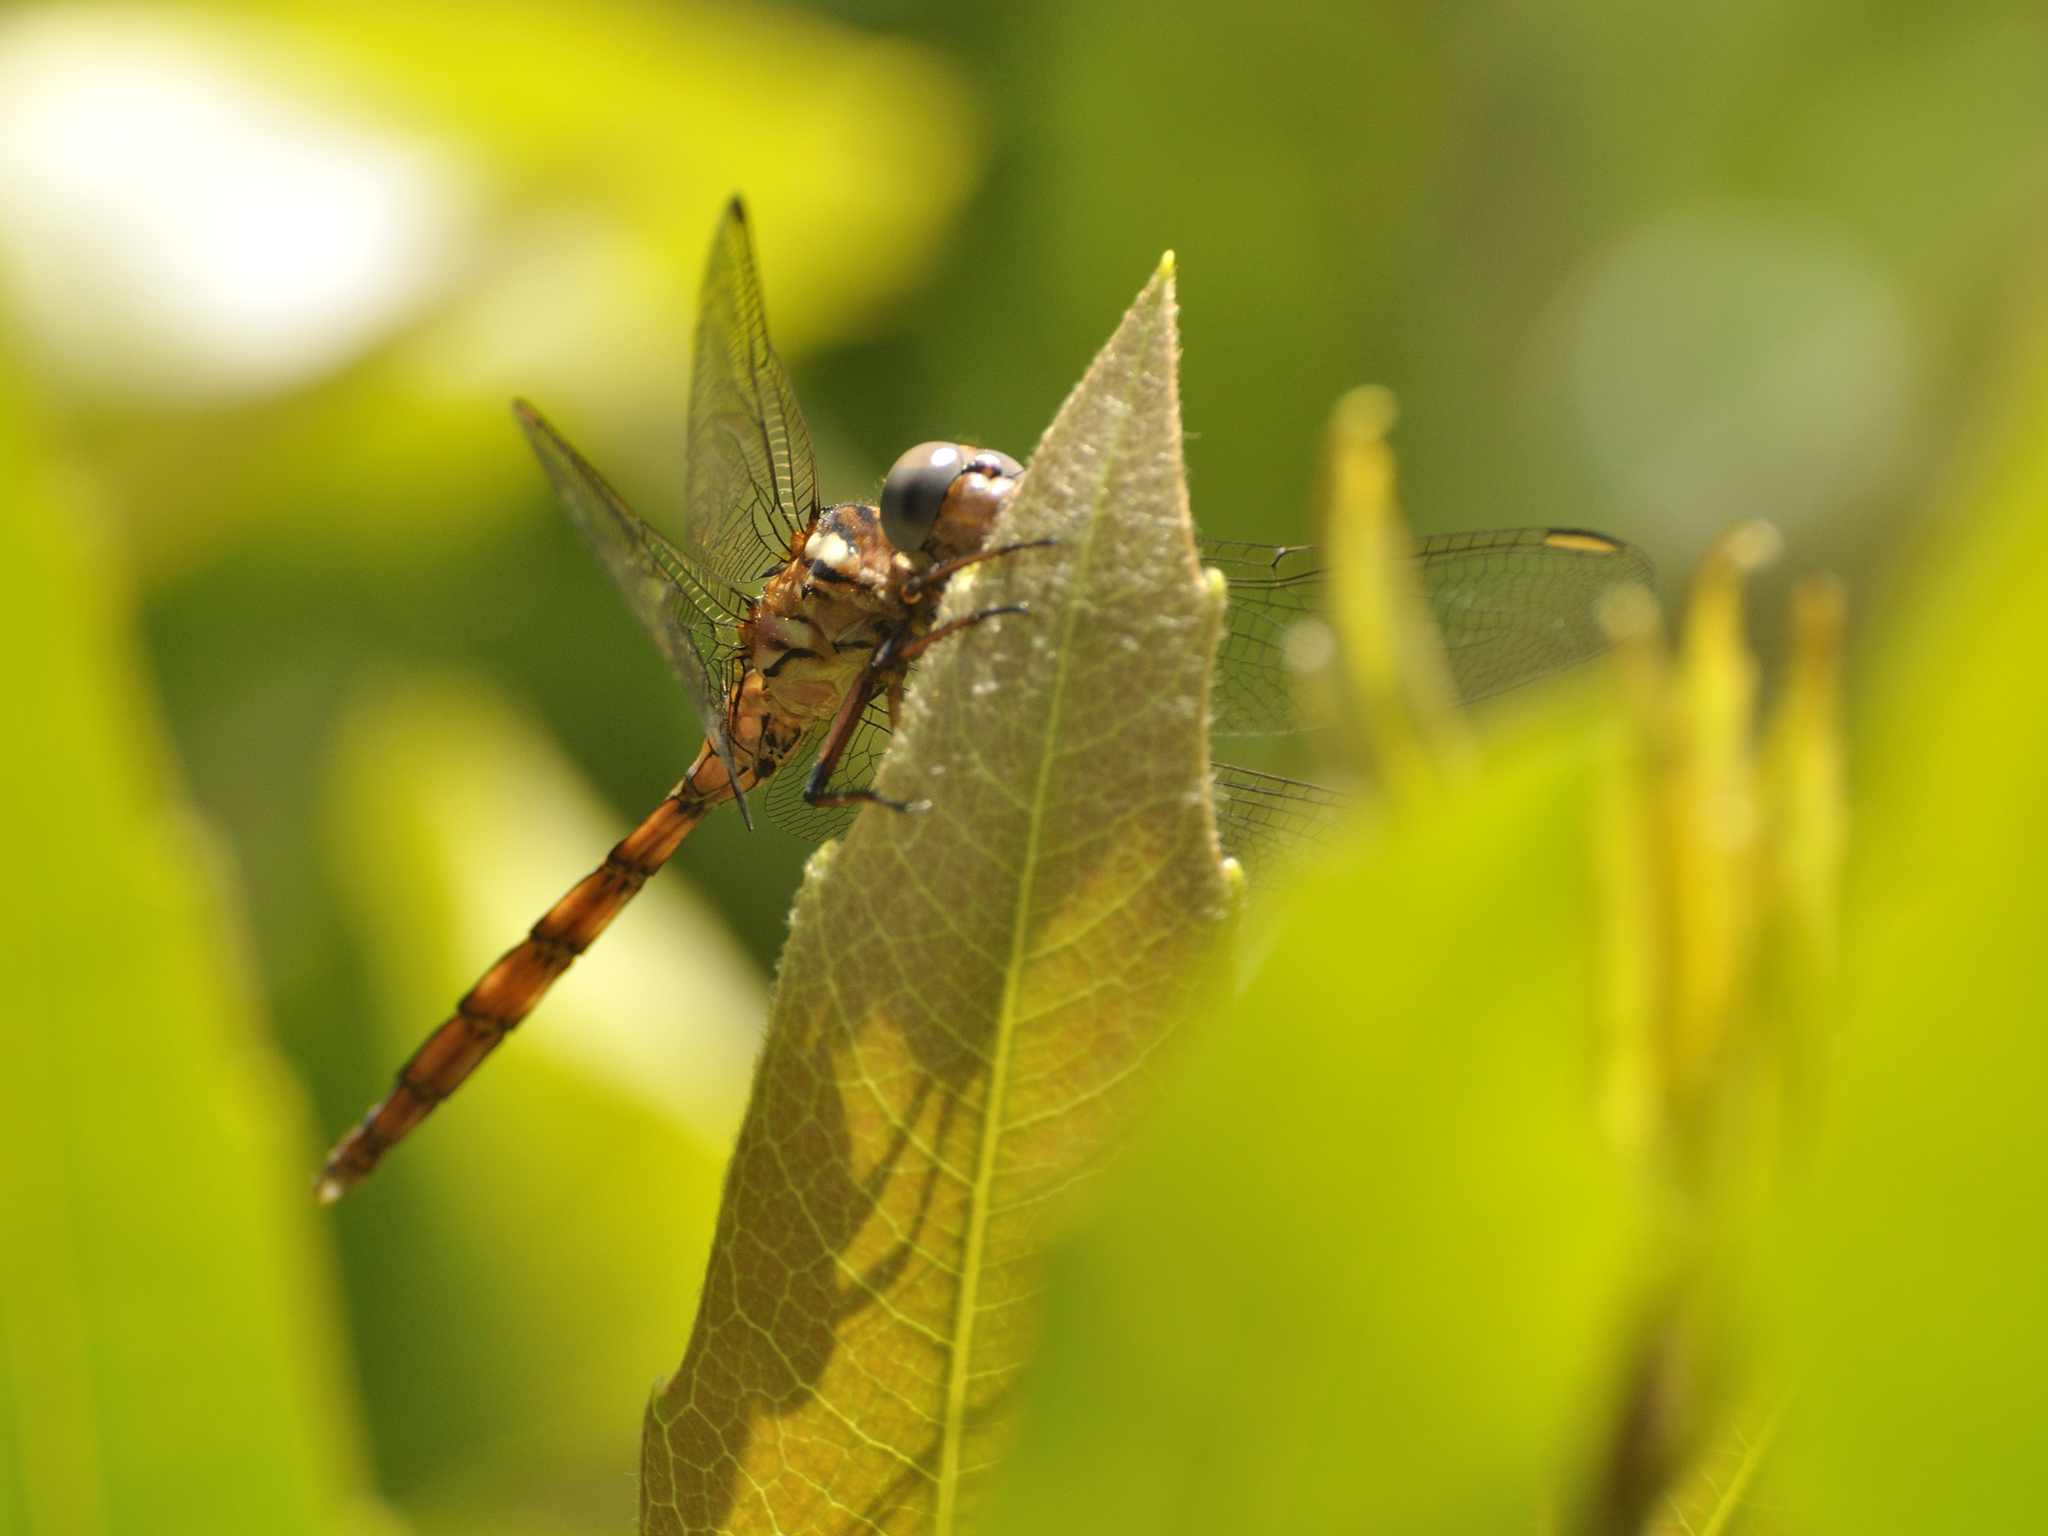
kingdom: Animalia
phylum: Arthropoda
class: Insecta
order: Odonata
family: Libellulidae
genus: Orthetrum
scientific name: Orthetrum julia
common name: Julia skimmer
